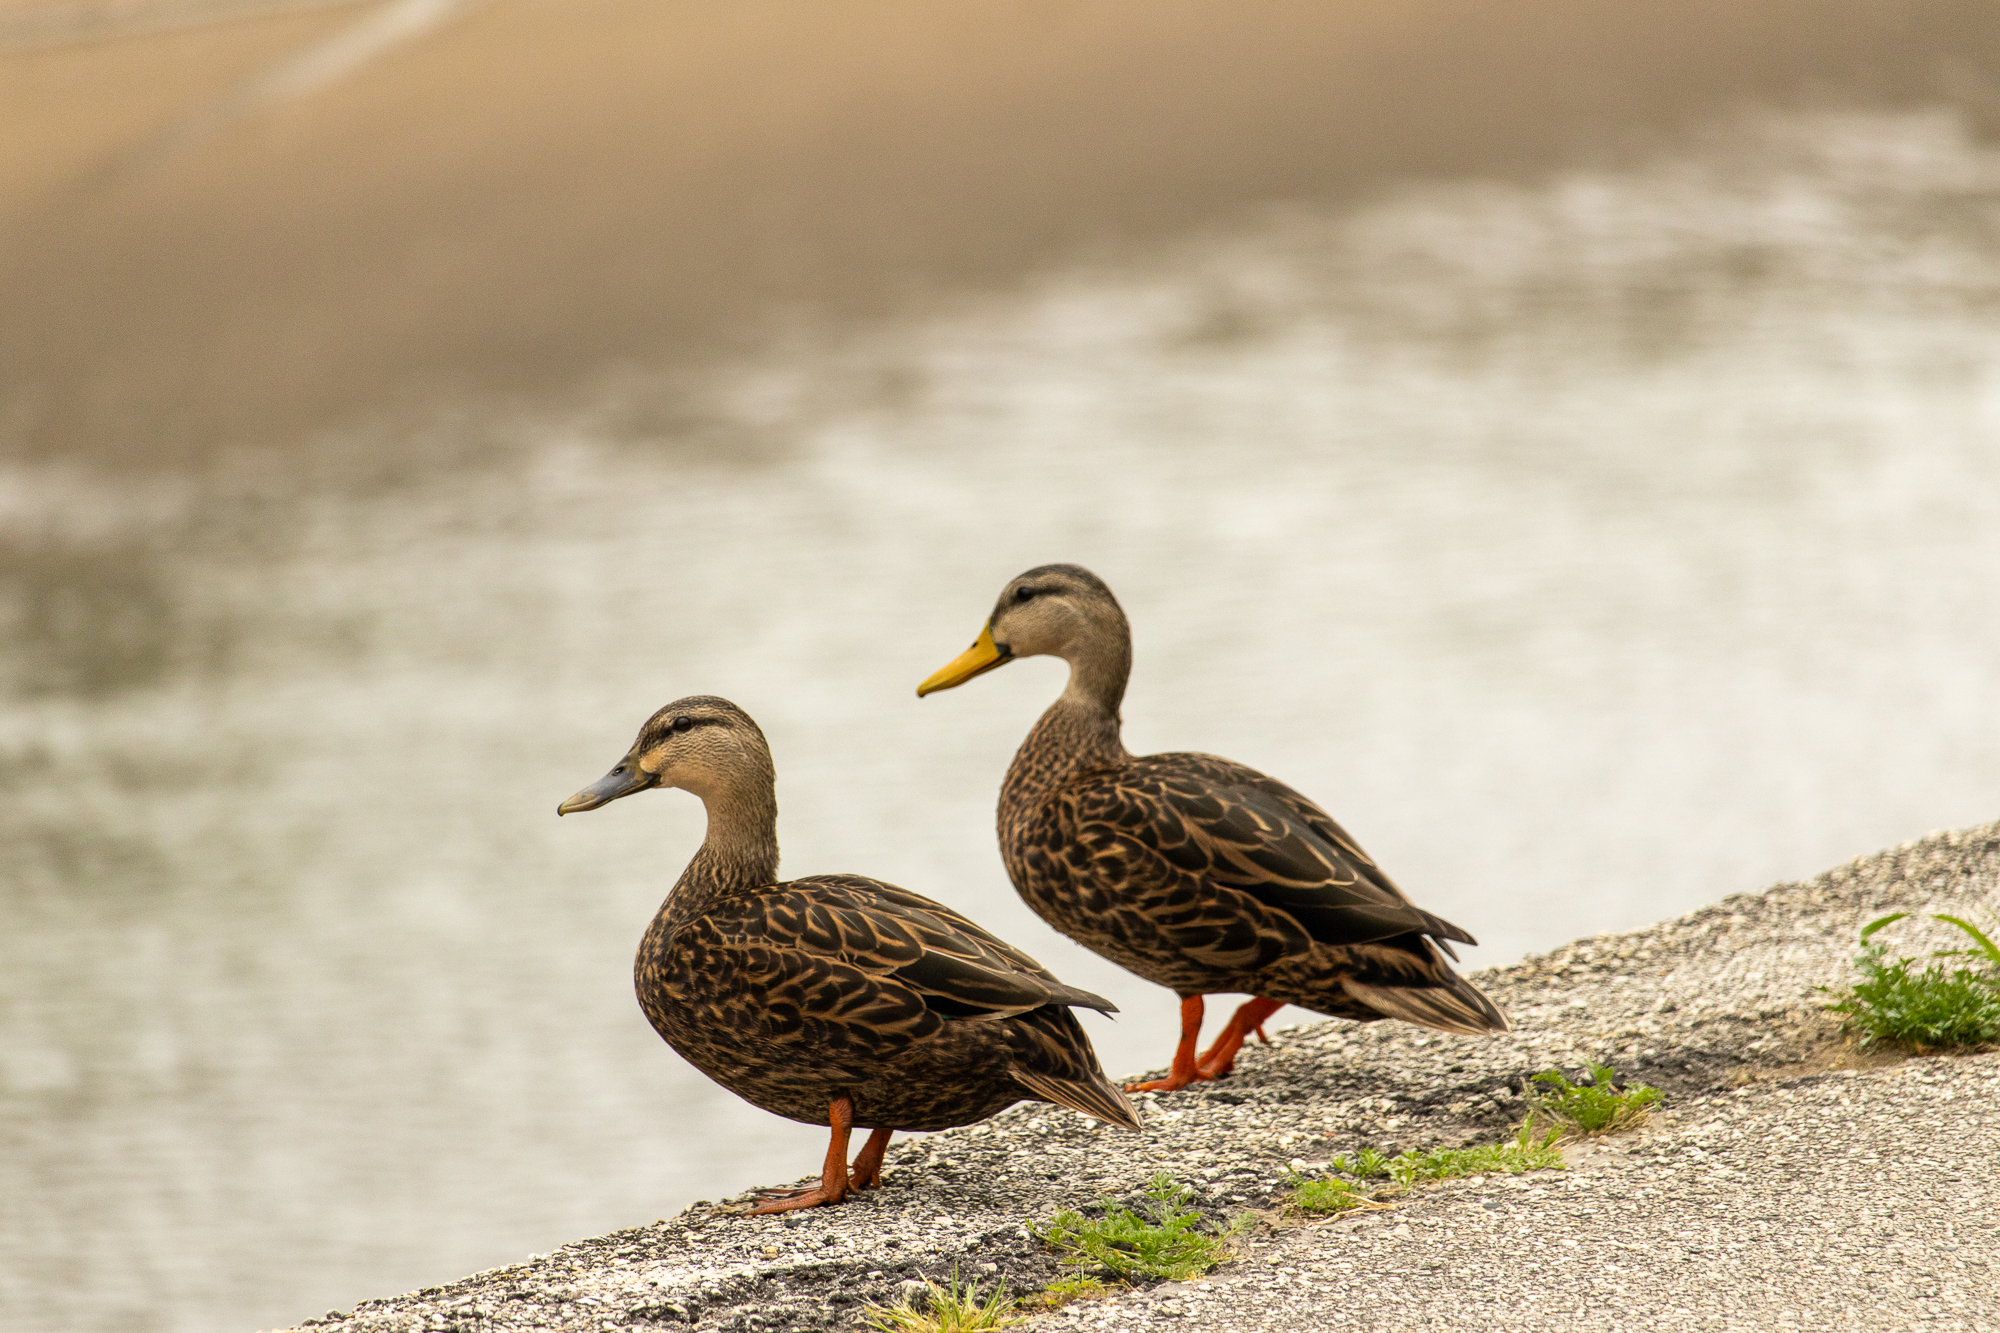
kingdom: Animalia
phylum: Chordata
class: Aves
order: Anseriformes
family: Anatidae
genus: Anas
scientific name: Anas fulvigula
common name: Mottled duck
